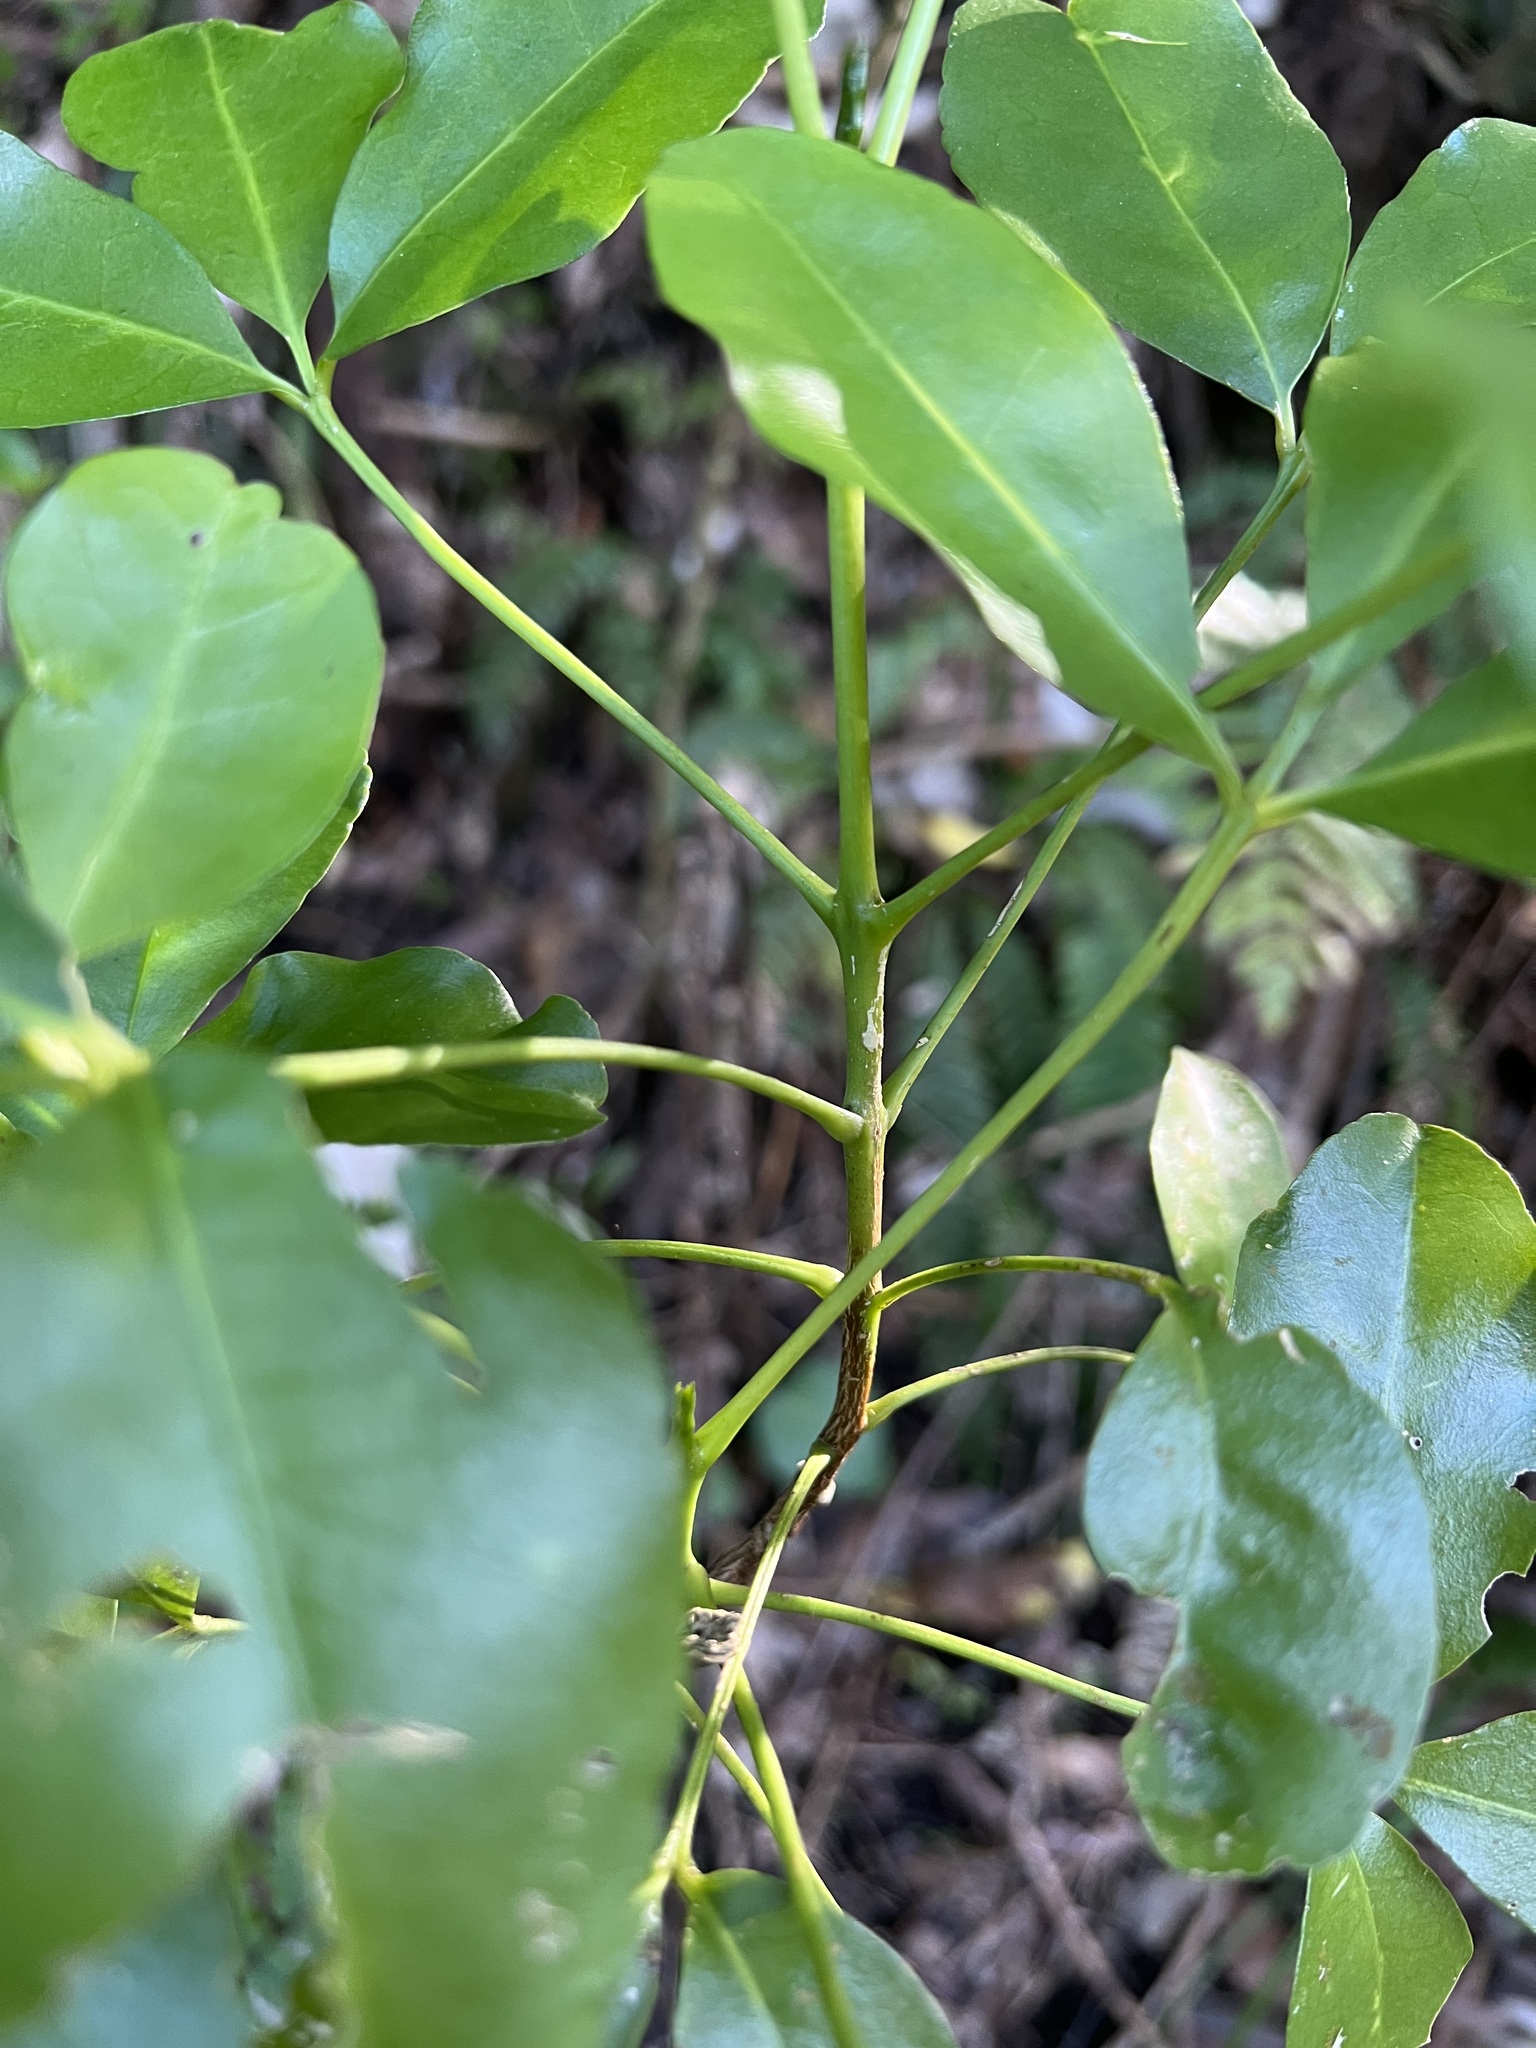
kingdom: Plantae
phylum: Tracheophyta
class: Magnoliopsida
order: Sapindales
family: Rutaceae
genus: Melicope
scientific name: Melicope ternata
